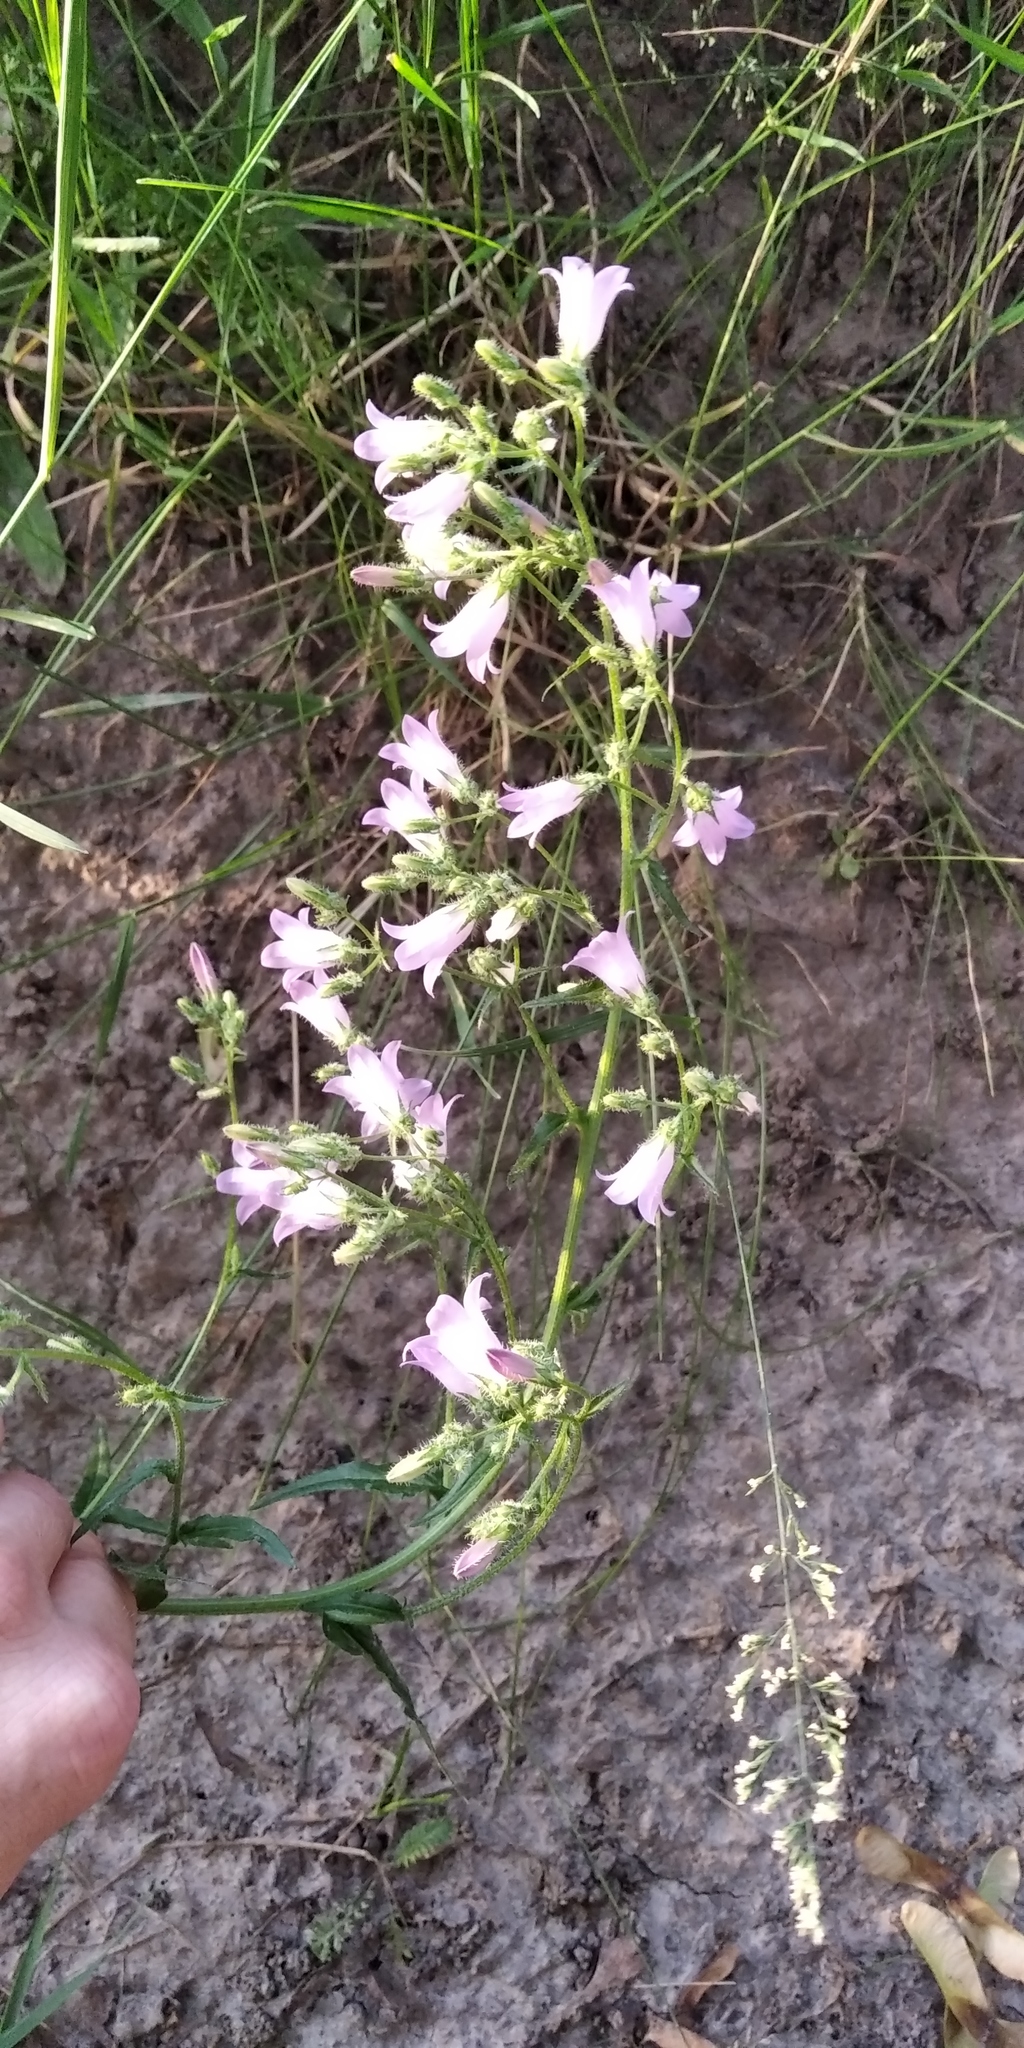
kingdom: Plantae
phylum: Tracheophyta
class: Magnoliopsida
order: Asterales
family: Campanulaceae
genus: Campanula
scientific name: Campanula sibirica
